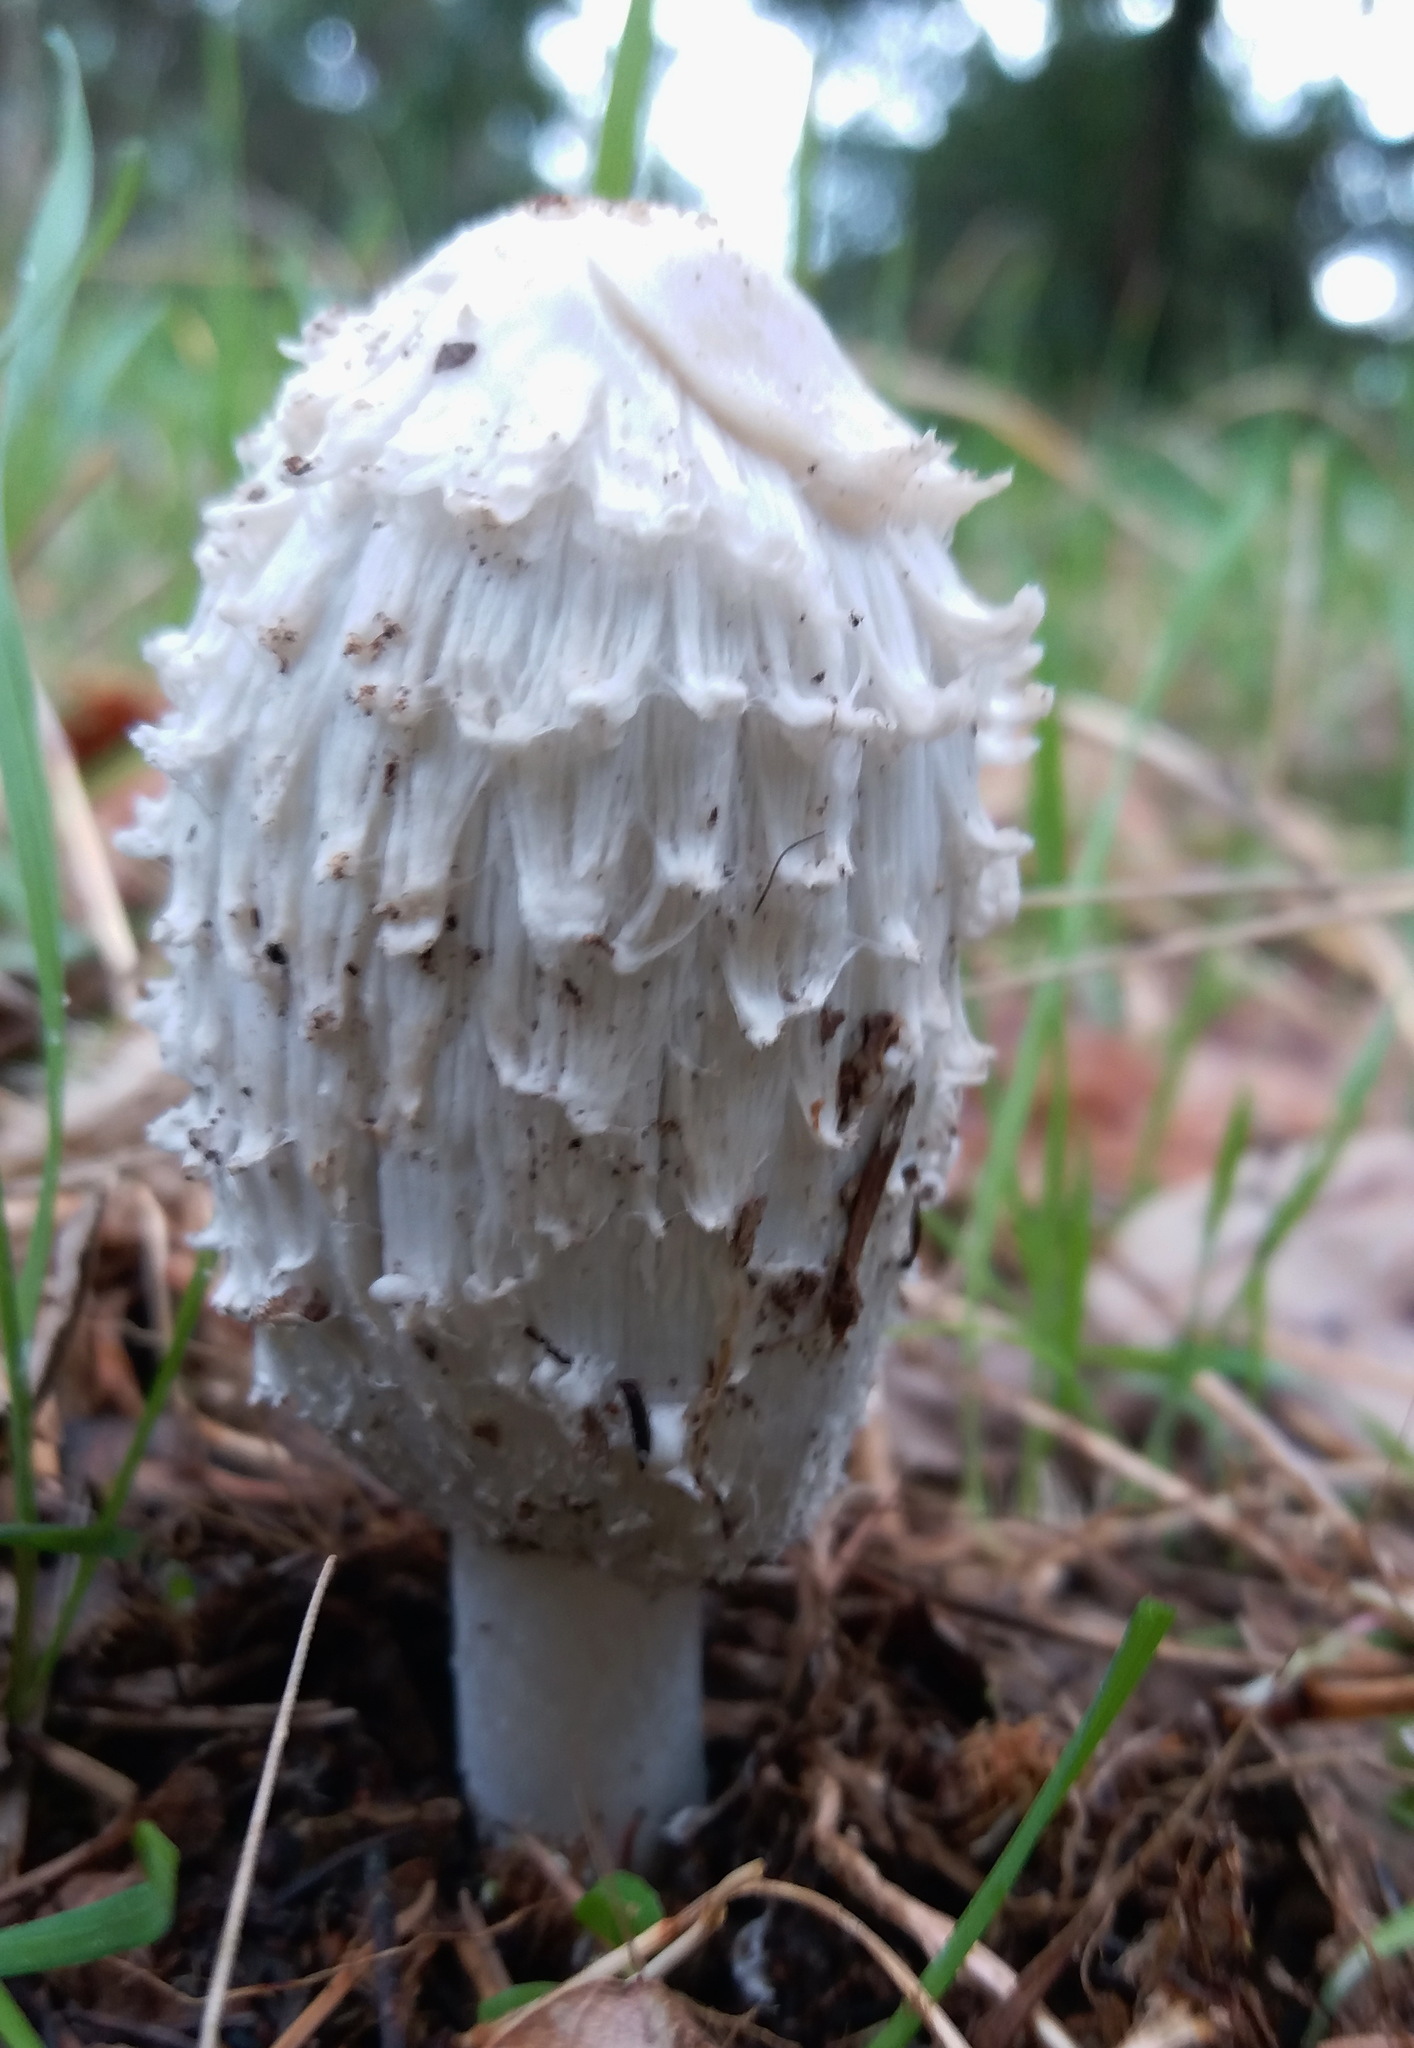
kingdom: Fungi
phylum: Basidiomycota
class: Agaricomycetes
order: Agaricales
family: Agaricaceae
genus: Coprinus
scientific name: Coprinus comatus
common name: Lawyer's wig
